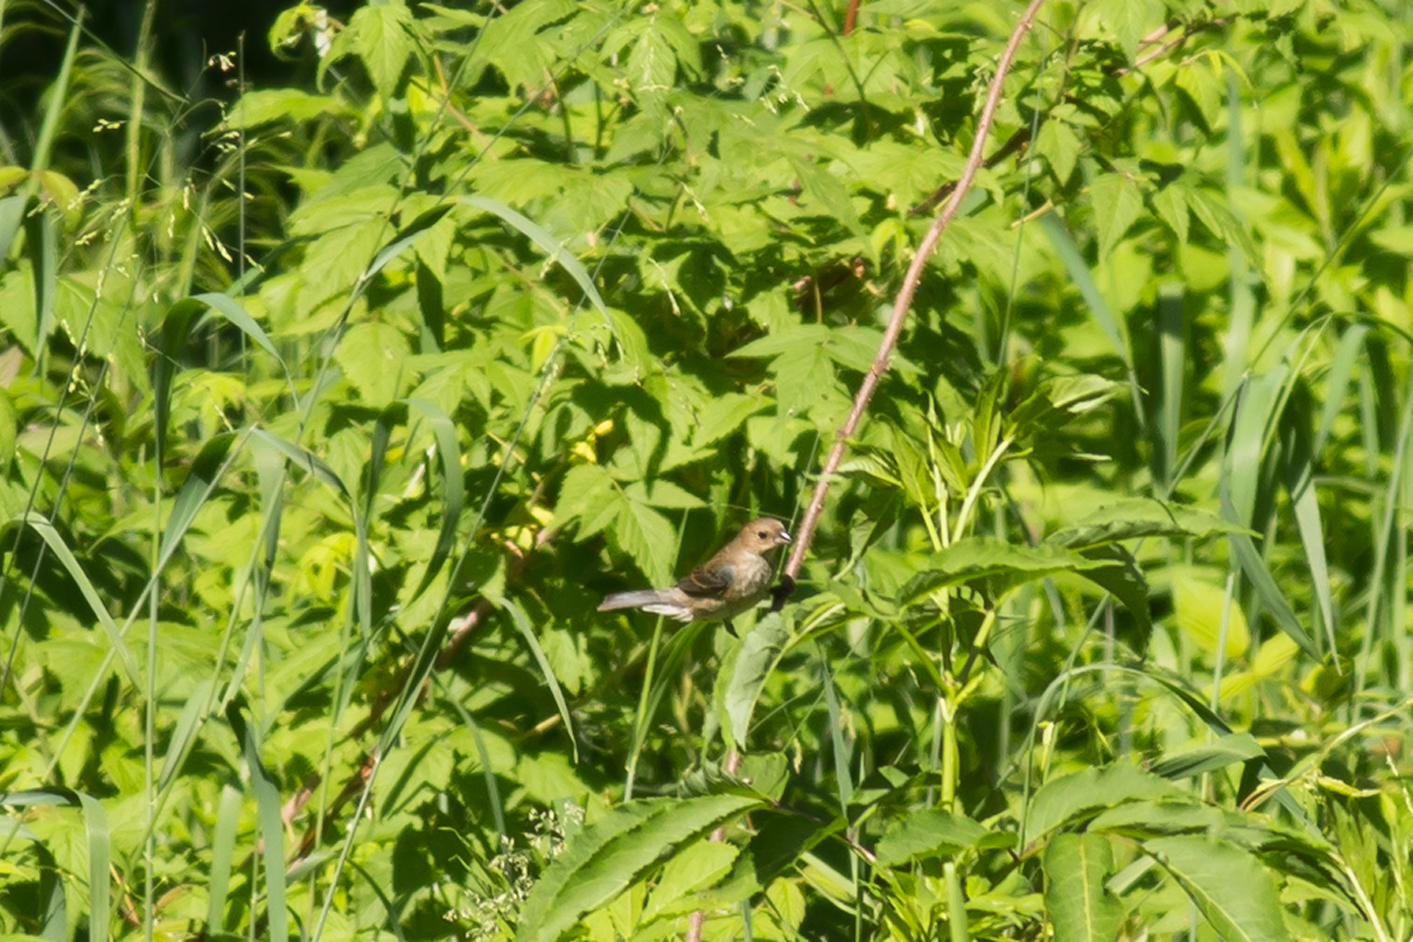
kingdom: Animalia
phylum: Chordata
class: Aves
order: Passeriformes
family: Cardinalidae
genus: Passerina
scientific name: Passerina cyanea
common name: Indigo bunting
